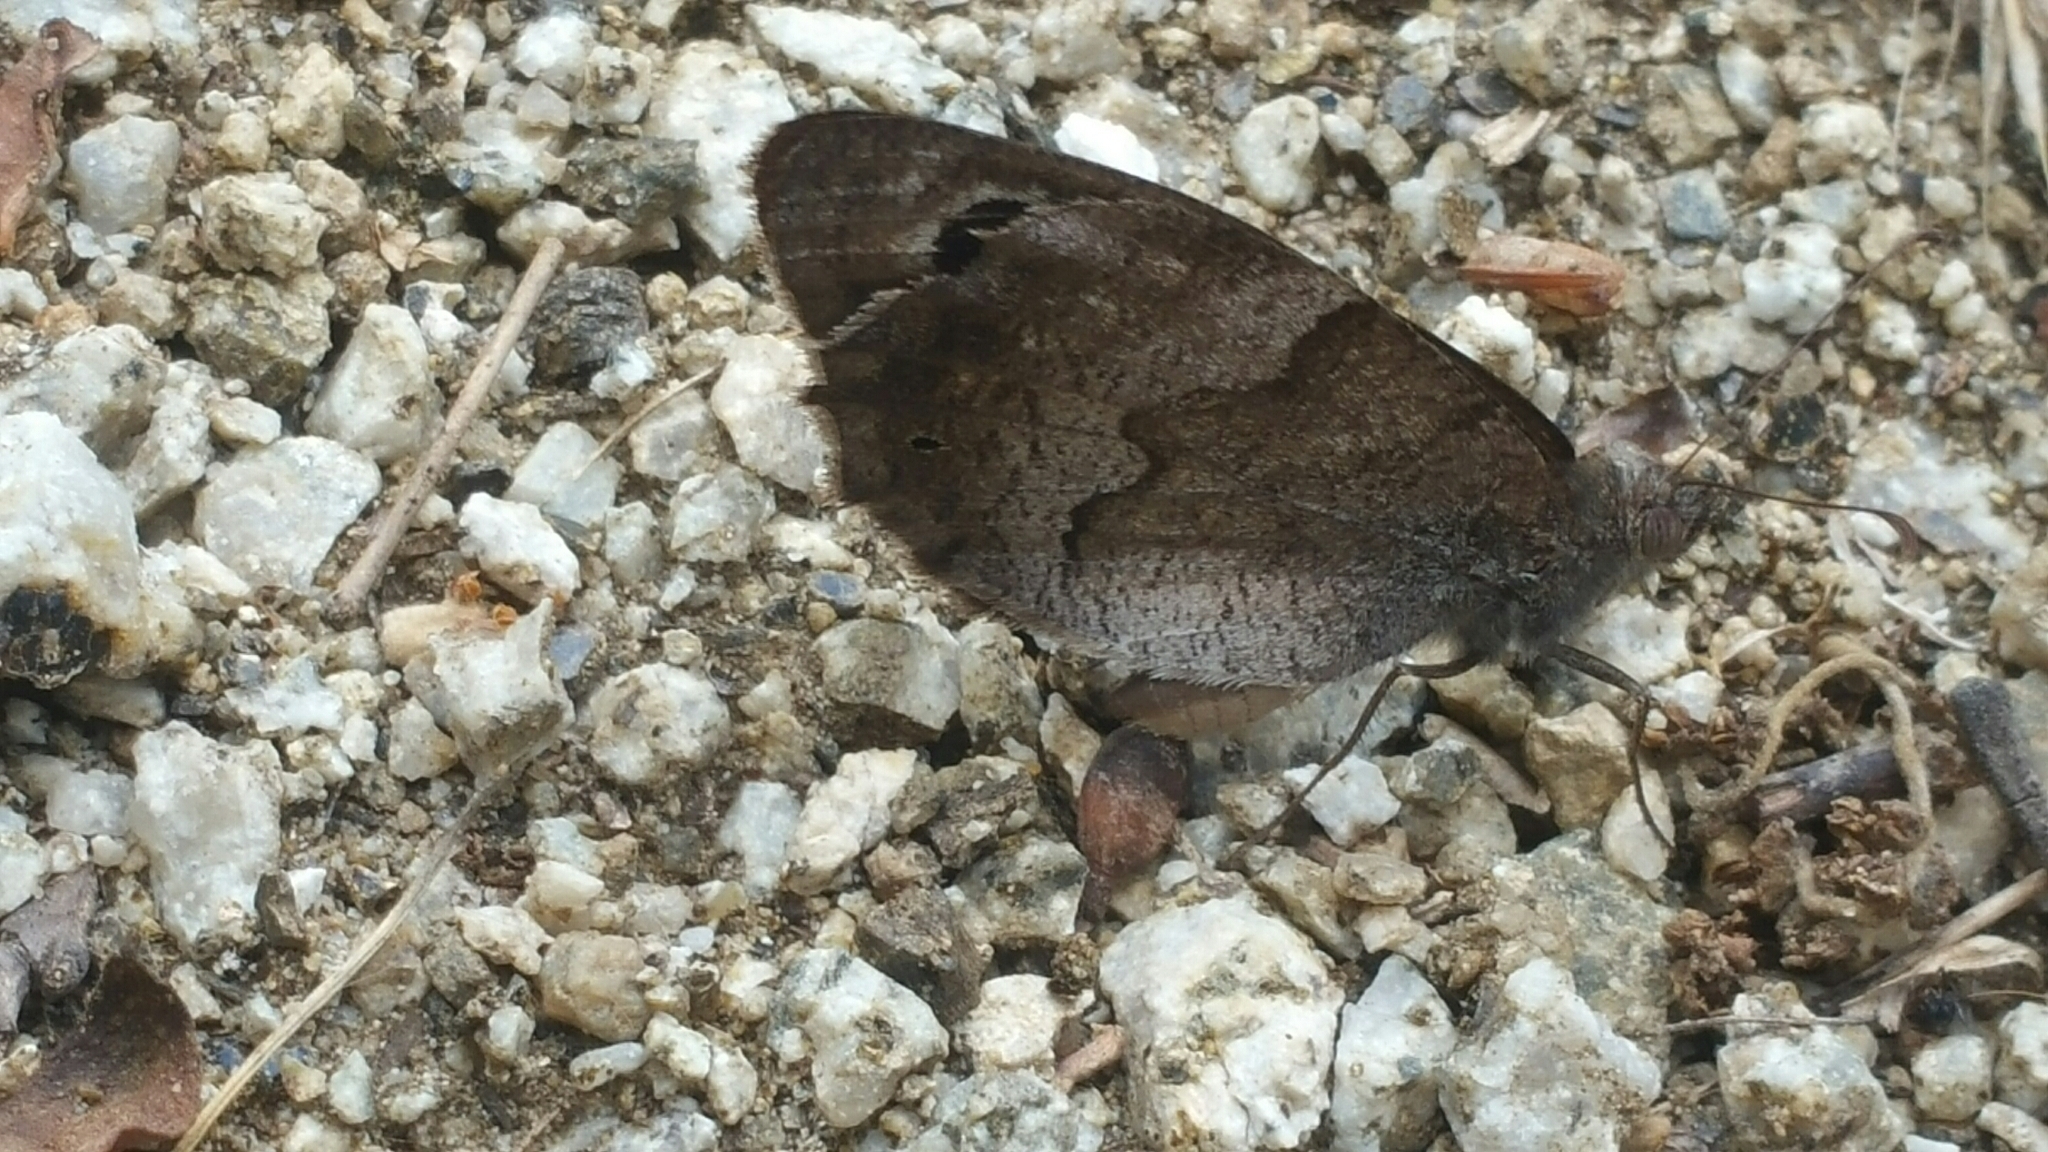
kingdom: Animalia
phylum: Arthropoda
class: Insecta
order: Lepidoptera
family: Nymphalidae
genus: Hipparchia
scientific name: Hipparchia statilinus
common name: Tree grayling
